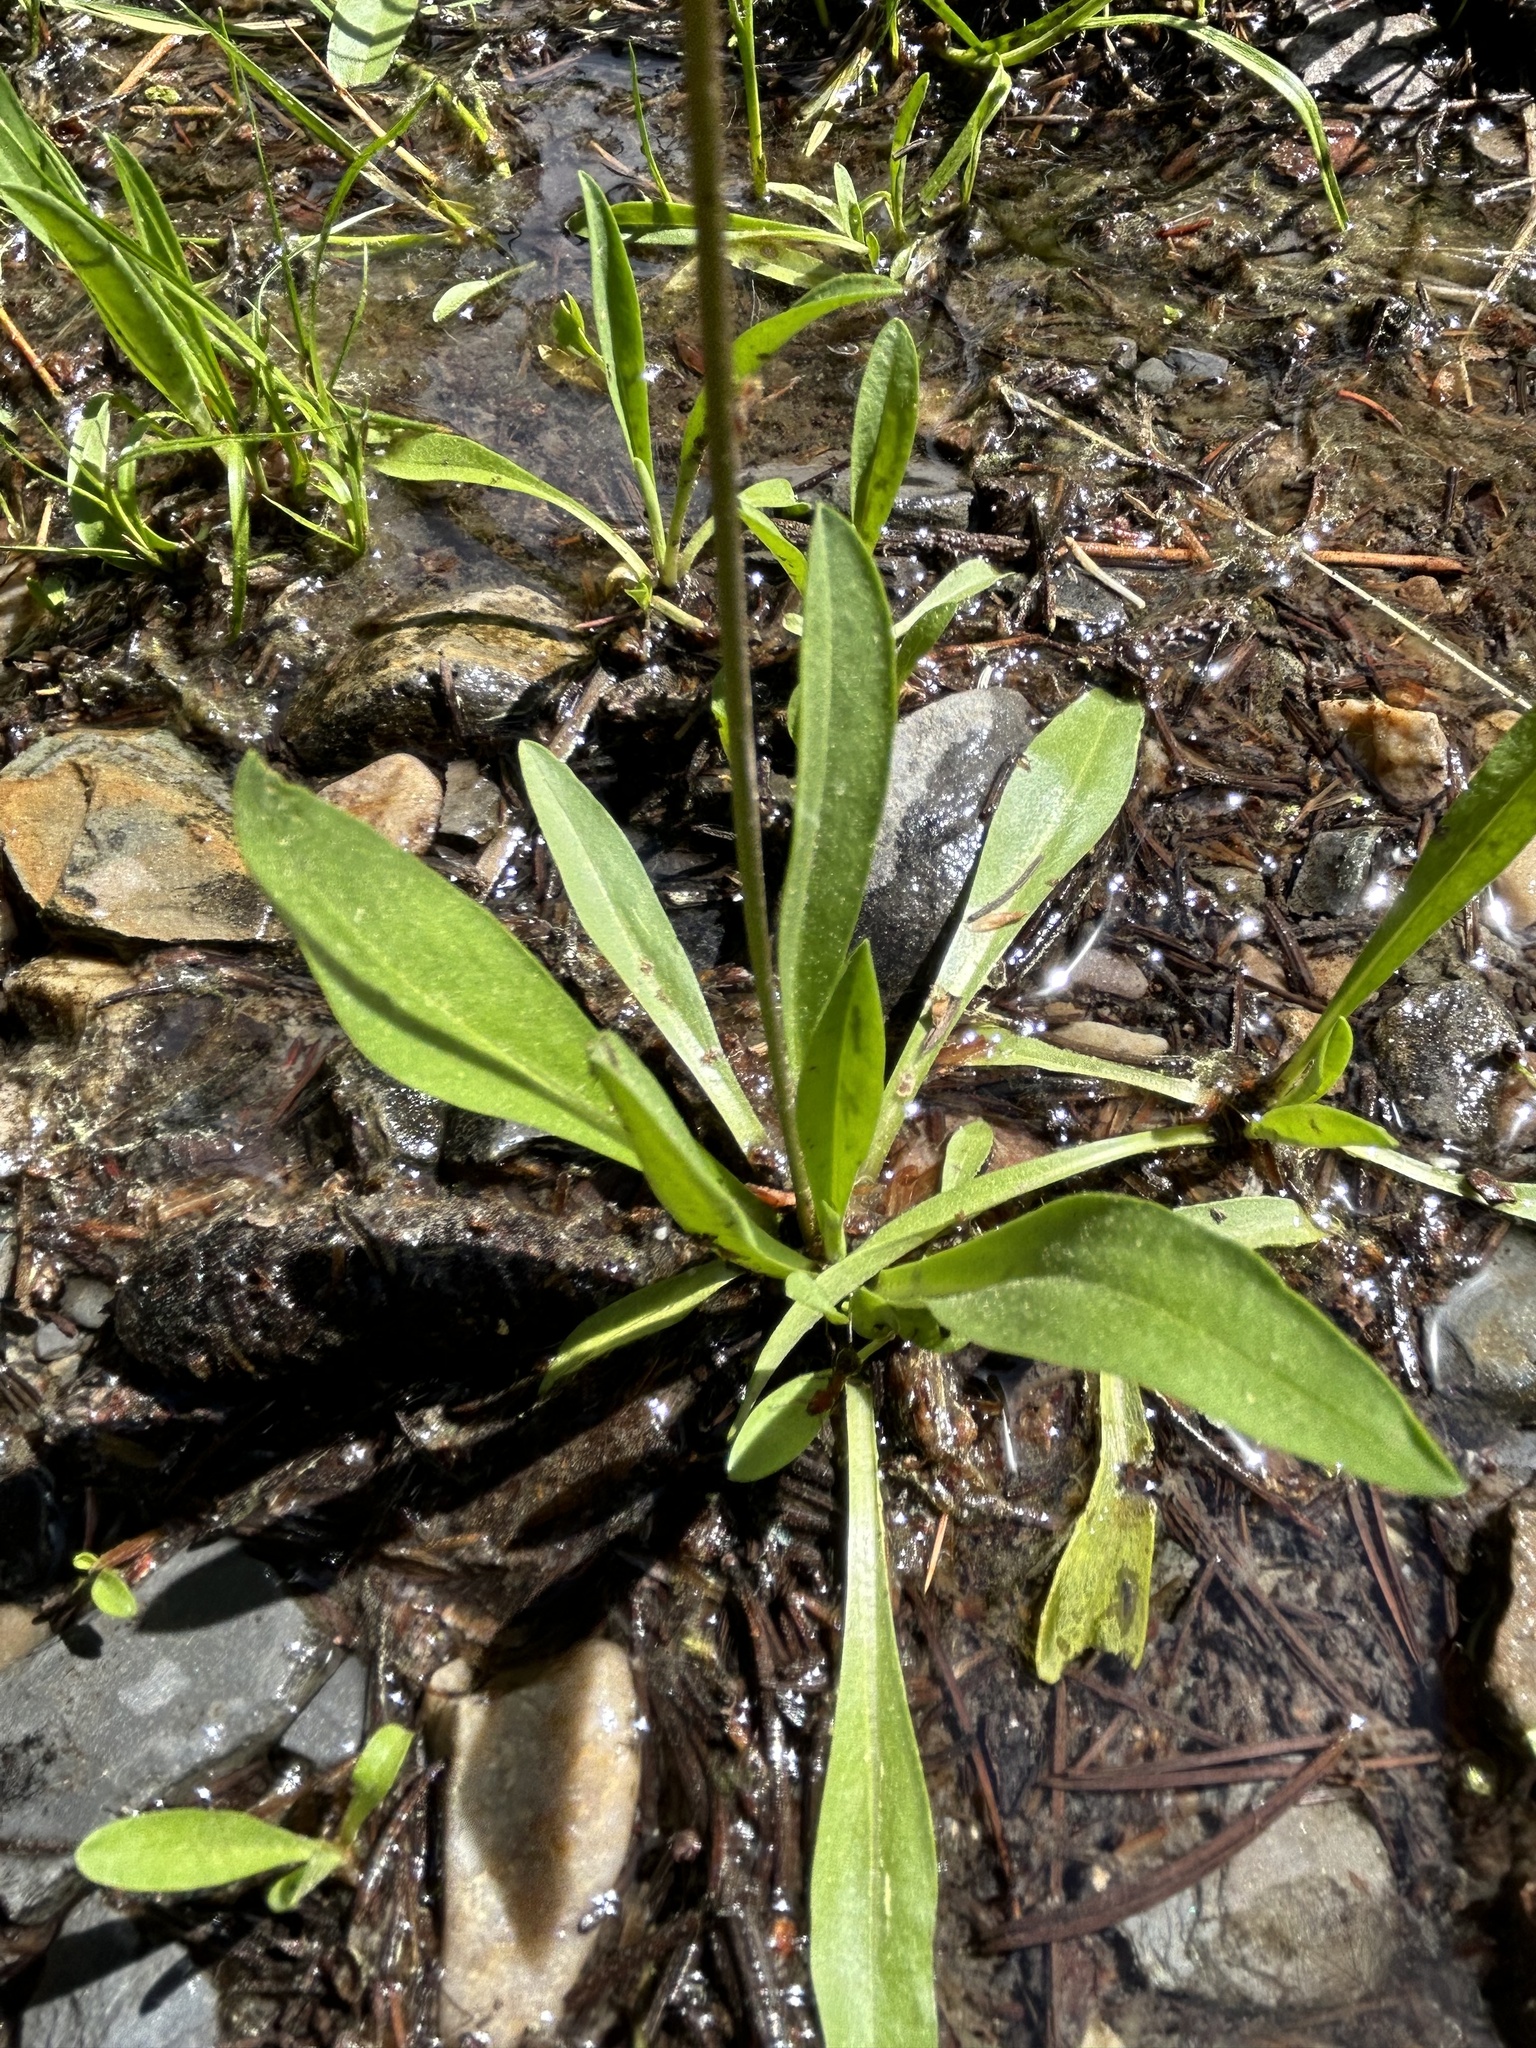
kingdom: Plantae
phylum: Tracheophyta
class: Magnoliopsida
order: Ericales
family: Primulaceae
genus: Dodecatheon
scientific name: Dodecatheon alpinum
